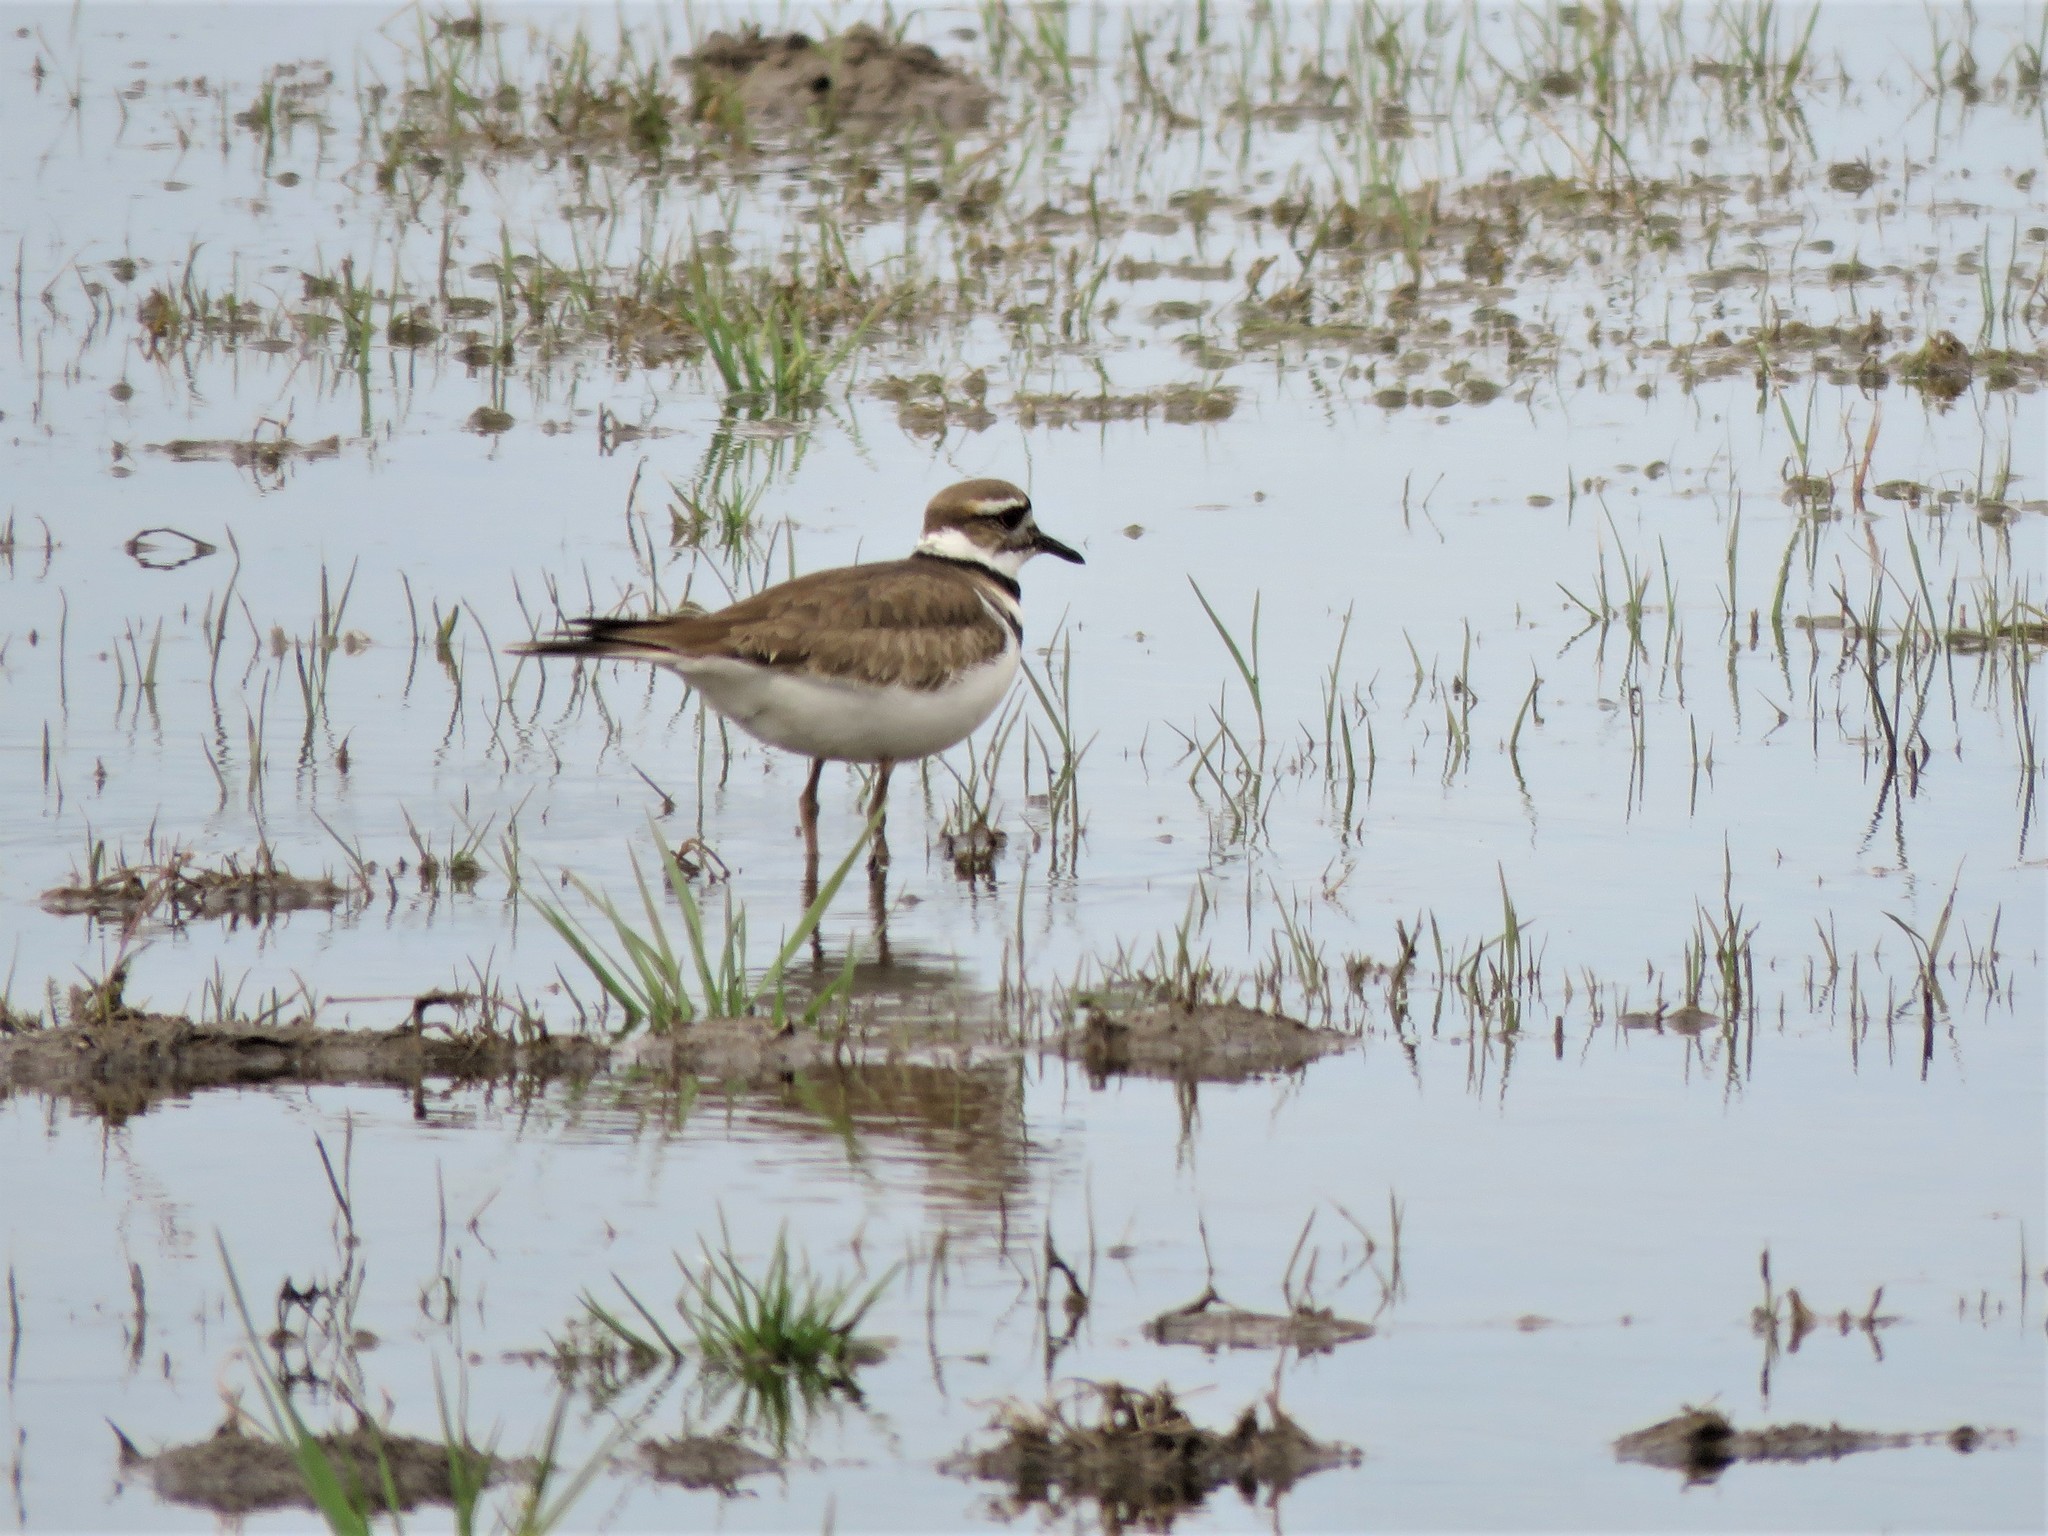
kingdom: Animalia
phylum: Chordata
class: Aves
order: Charadriiformes
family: Charadriidae
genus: Charadrius
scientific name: Charadrius vociferus
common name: Killdeer
